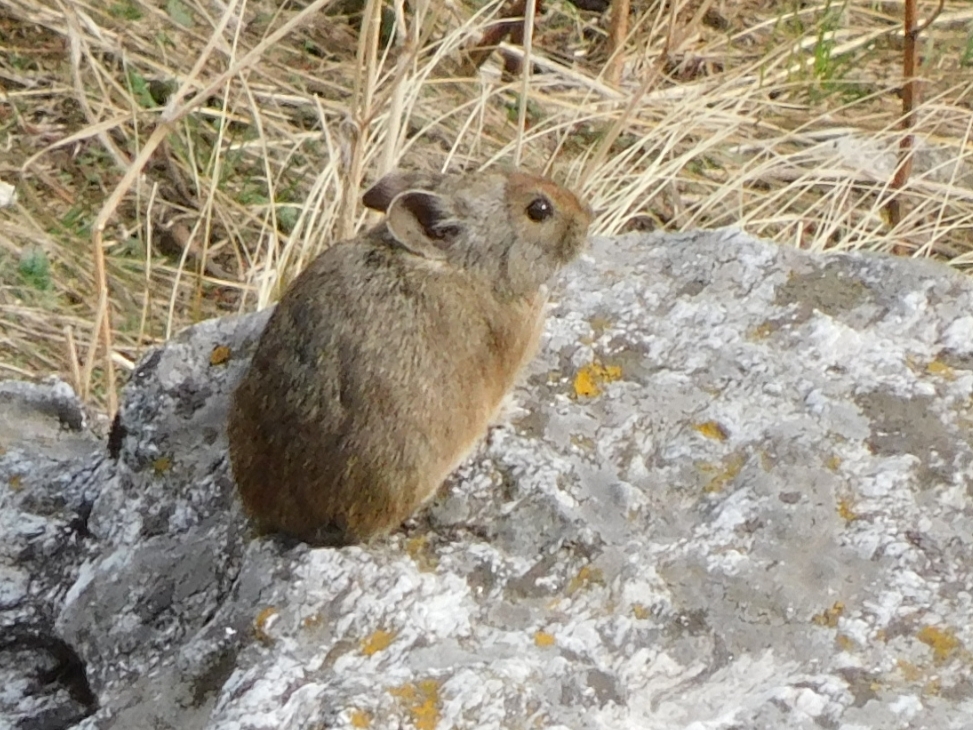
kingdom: Animalia
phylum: Chordata
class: Mammalia
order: Lagomorpha
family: Ochotonidae
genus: Ochotona
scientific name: Ochotona roylii
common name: Royle s pika
